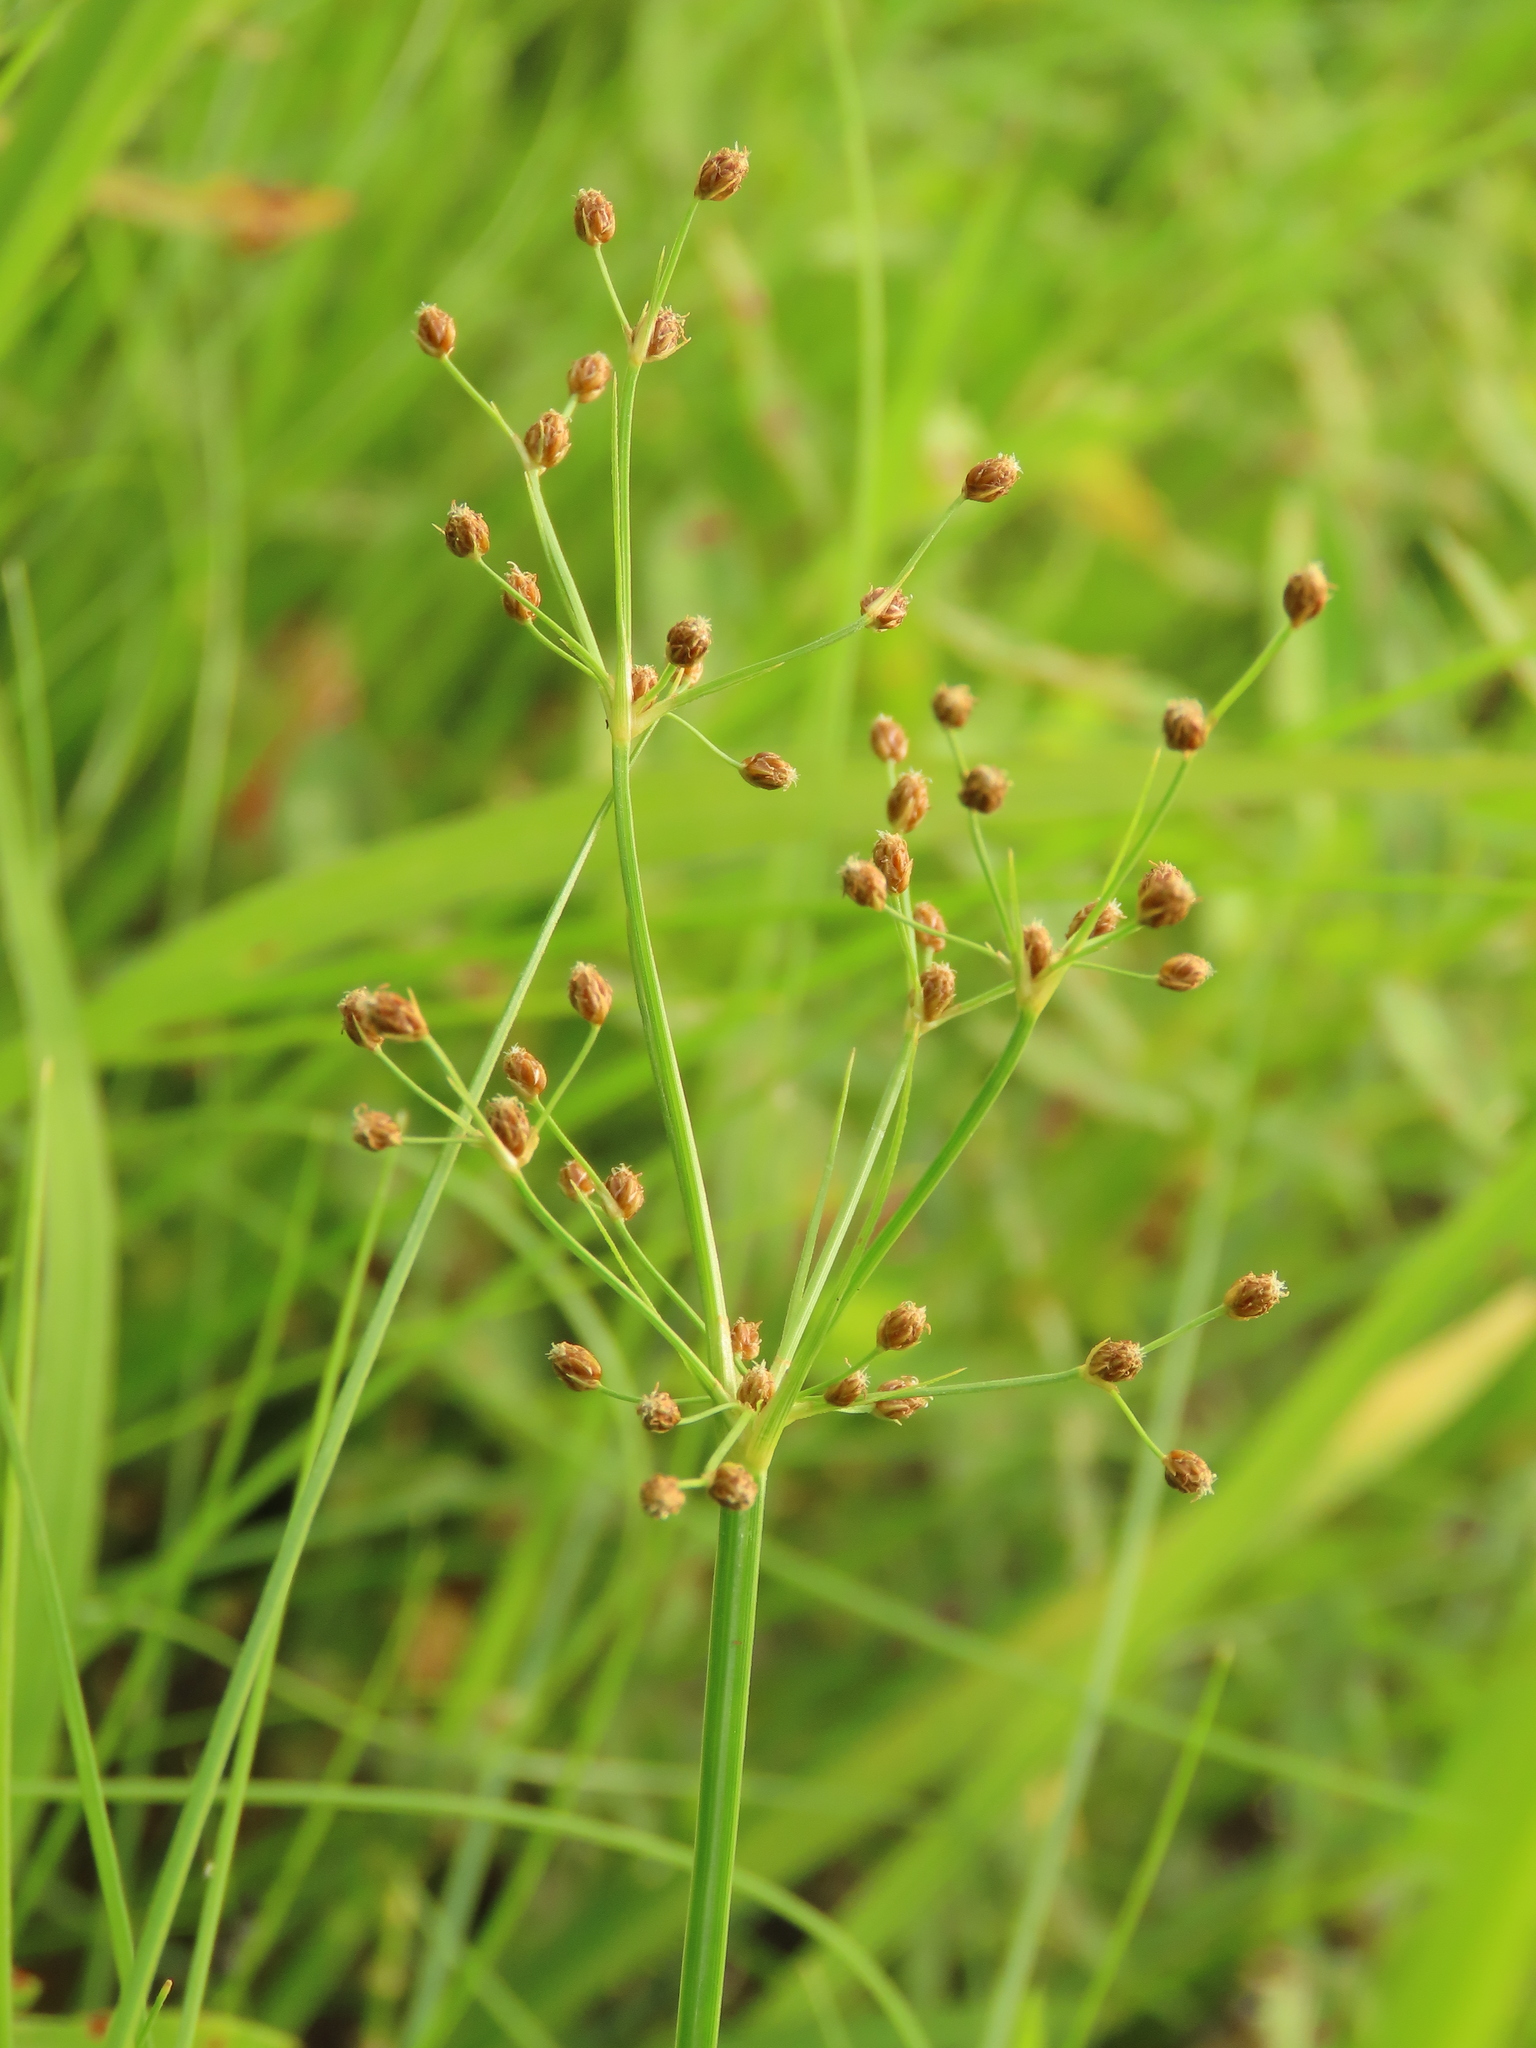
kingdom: Plantae
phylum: Tracheophyta
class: Liliopsida
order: Poales
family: Cyperaceae
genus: Fimbristylis
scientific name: Fimbristylis littoralis
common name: Fimbry
